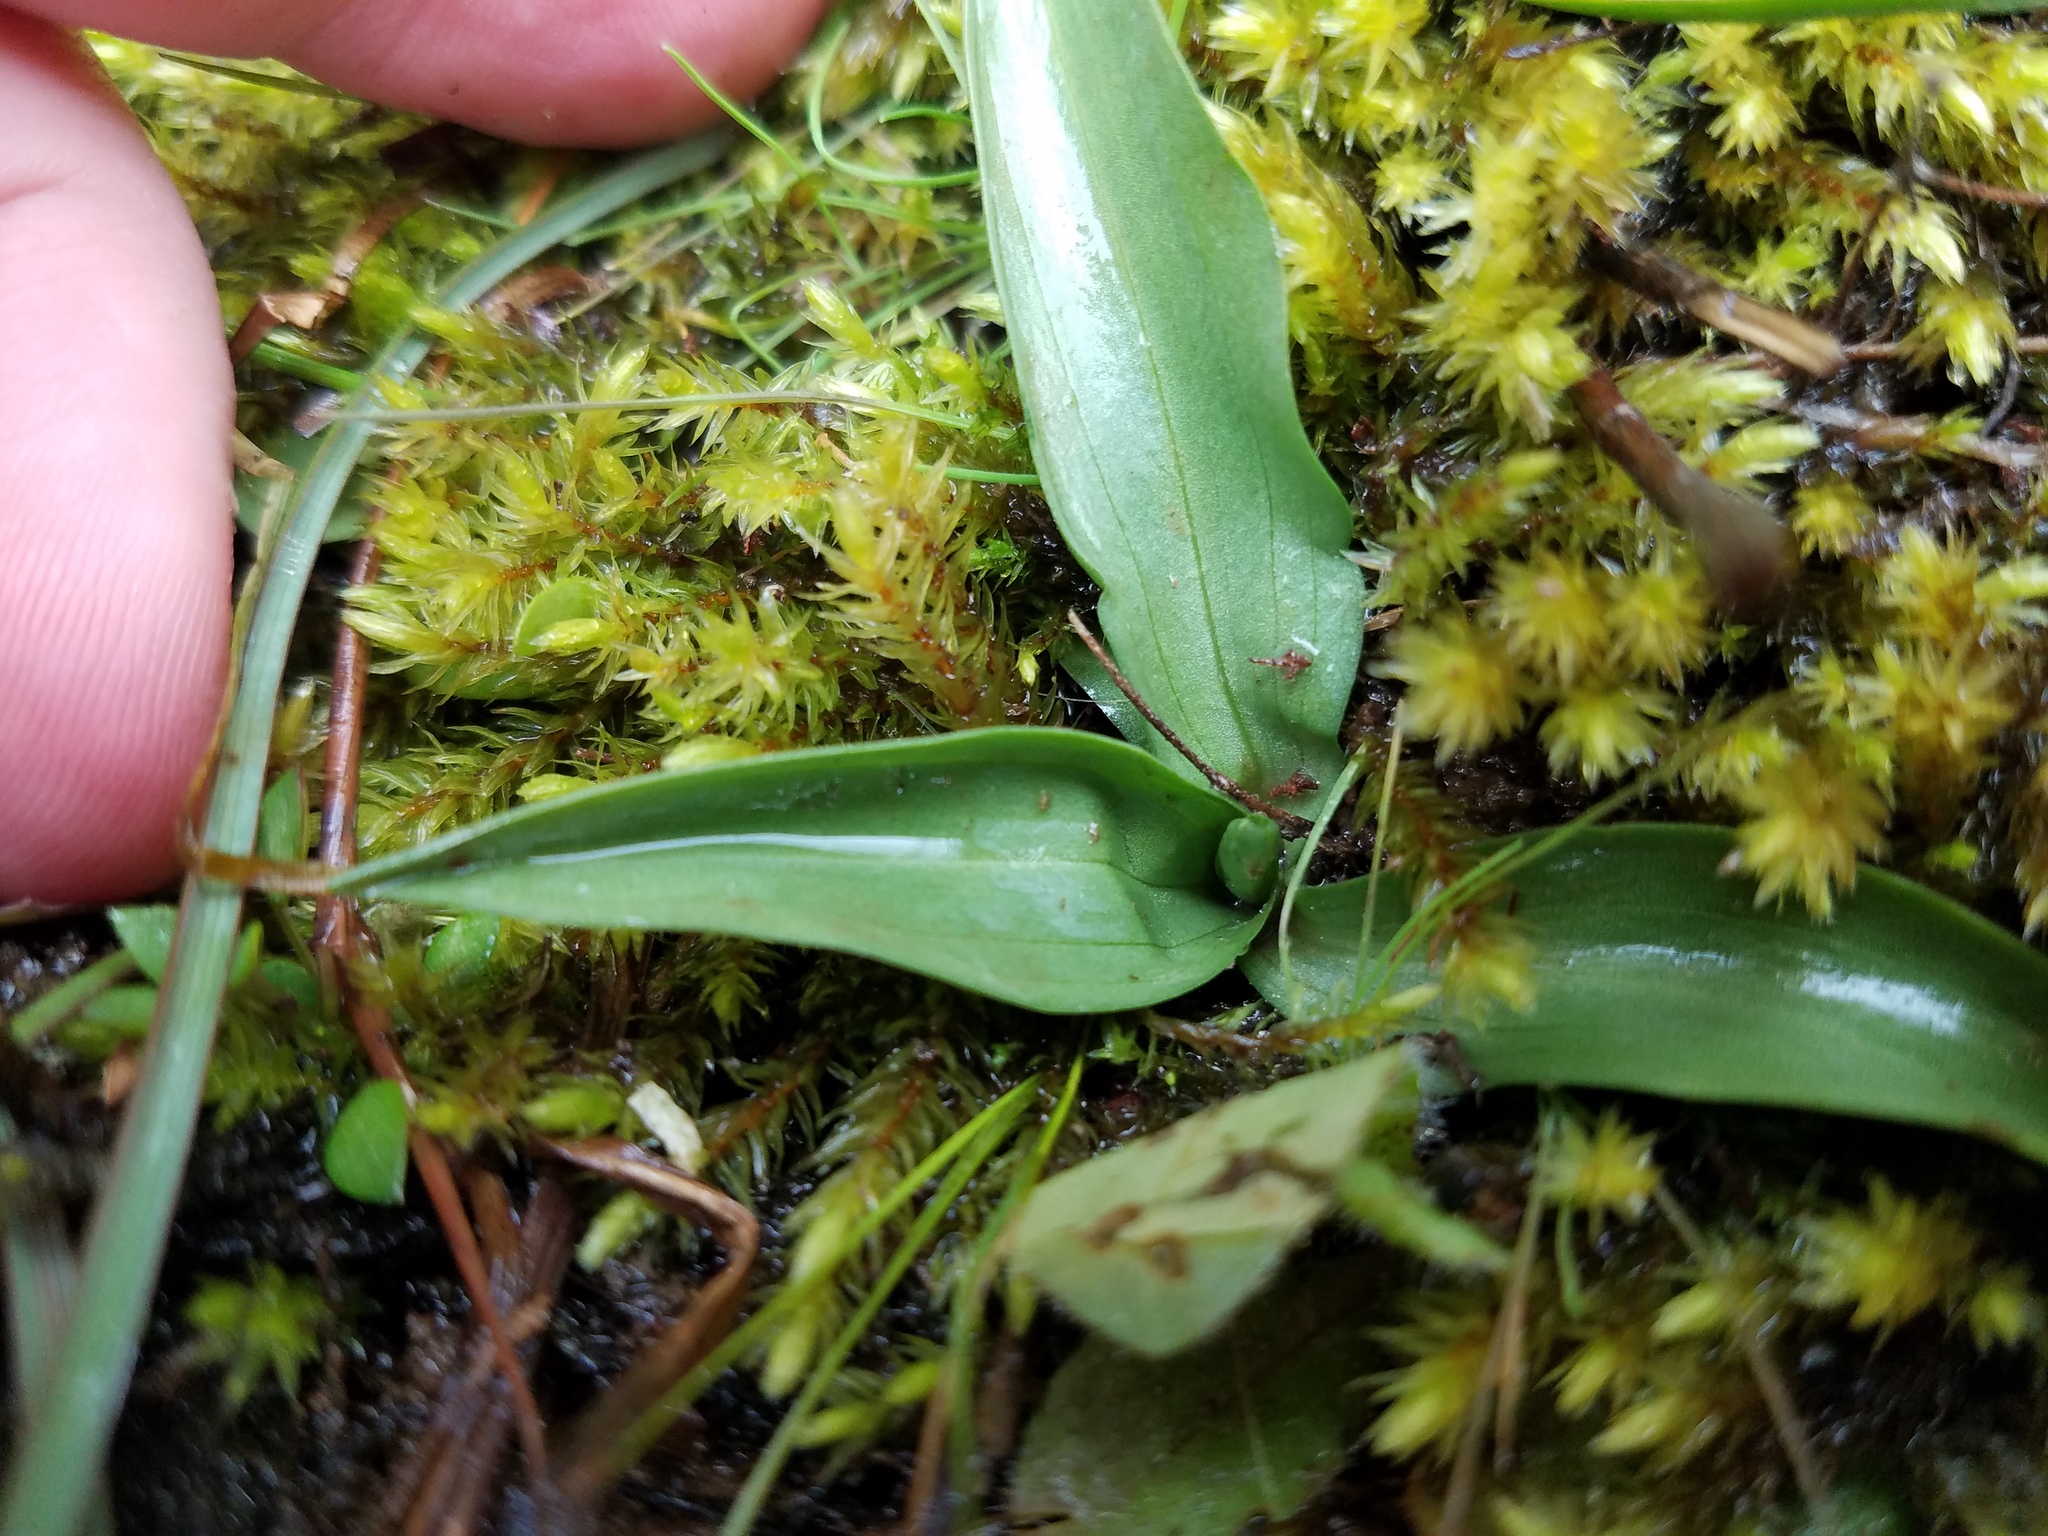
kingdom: Plantae
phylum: Tracheophyta
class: Liliopsida
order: Asparagales
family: Orchidaceae
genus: Spiranthes
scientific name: Spiranthes vernalis
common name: Spring ladies'-tresses
